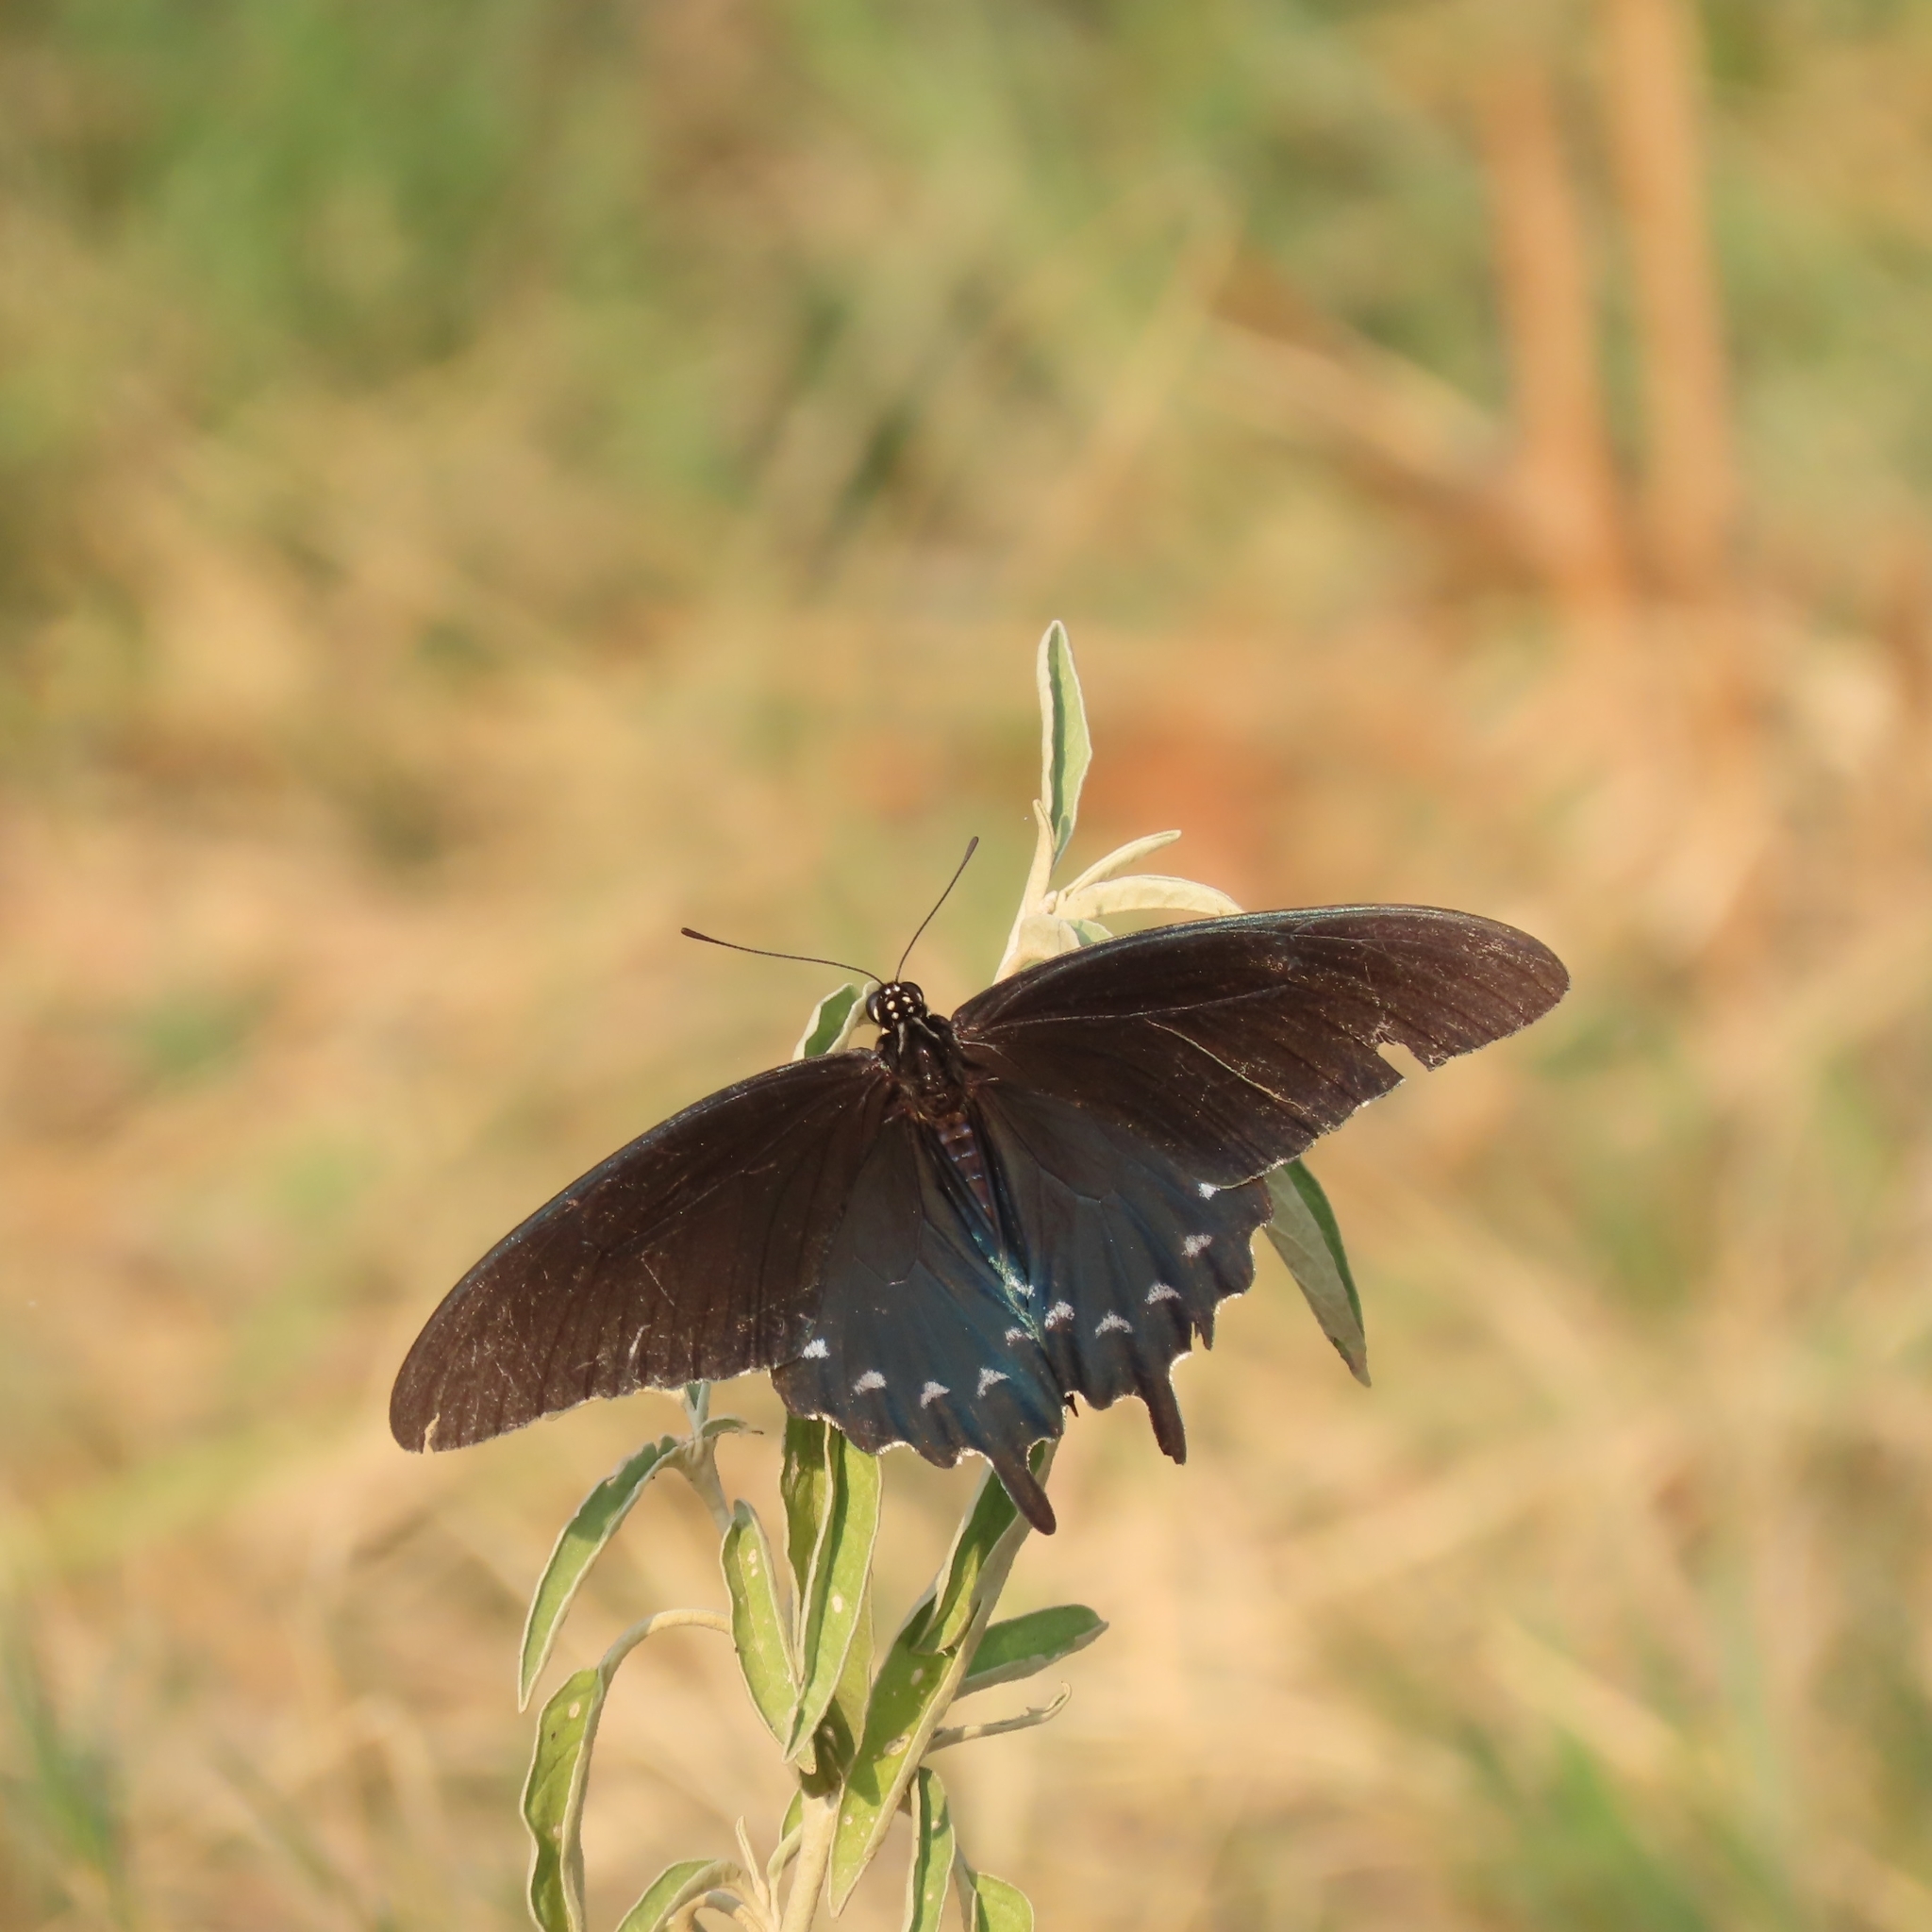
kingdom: Animalia
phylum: Arthropoda
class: Insecta
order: Lepidoptera
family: Papilionidae
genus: Battus
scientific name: Battus philenor
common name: Pipevine swallowtail
